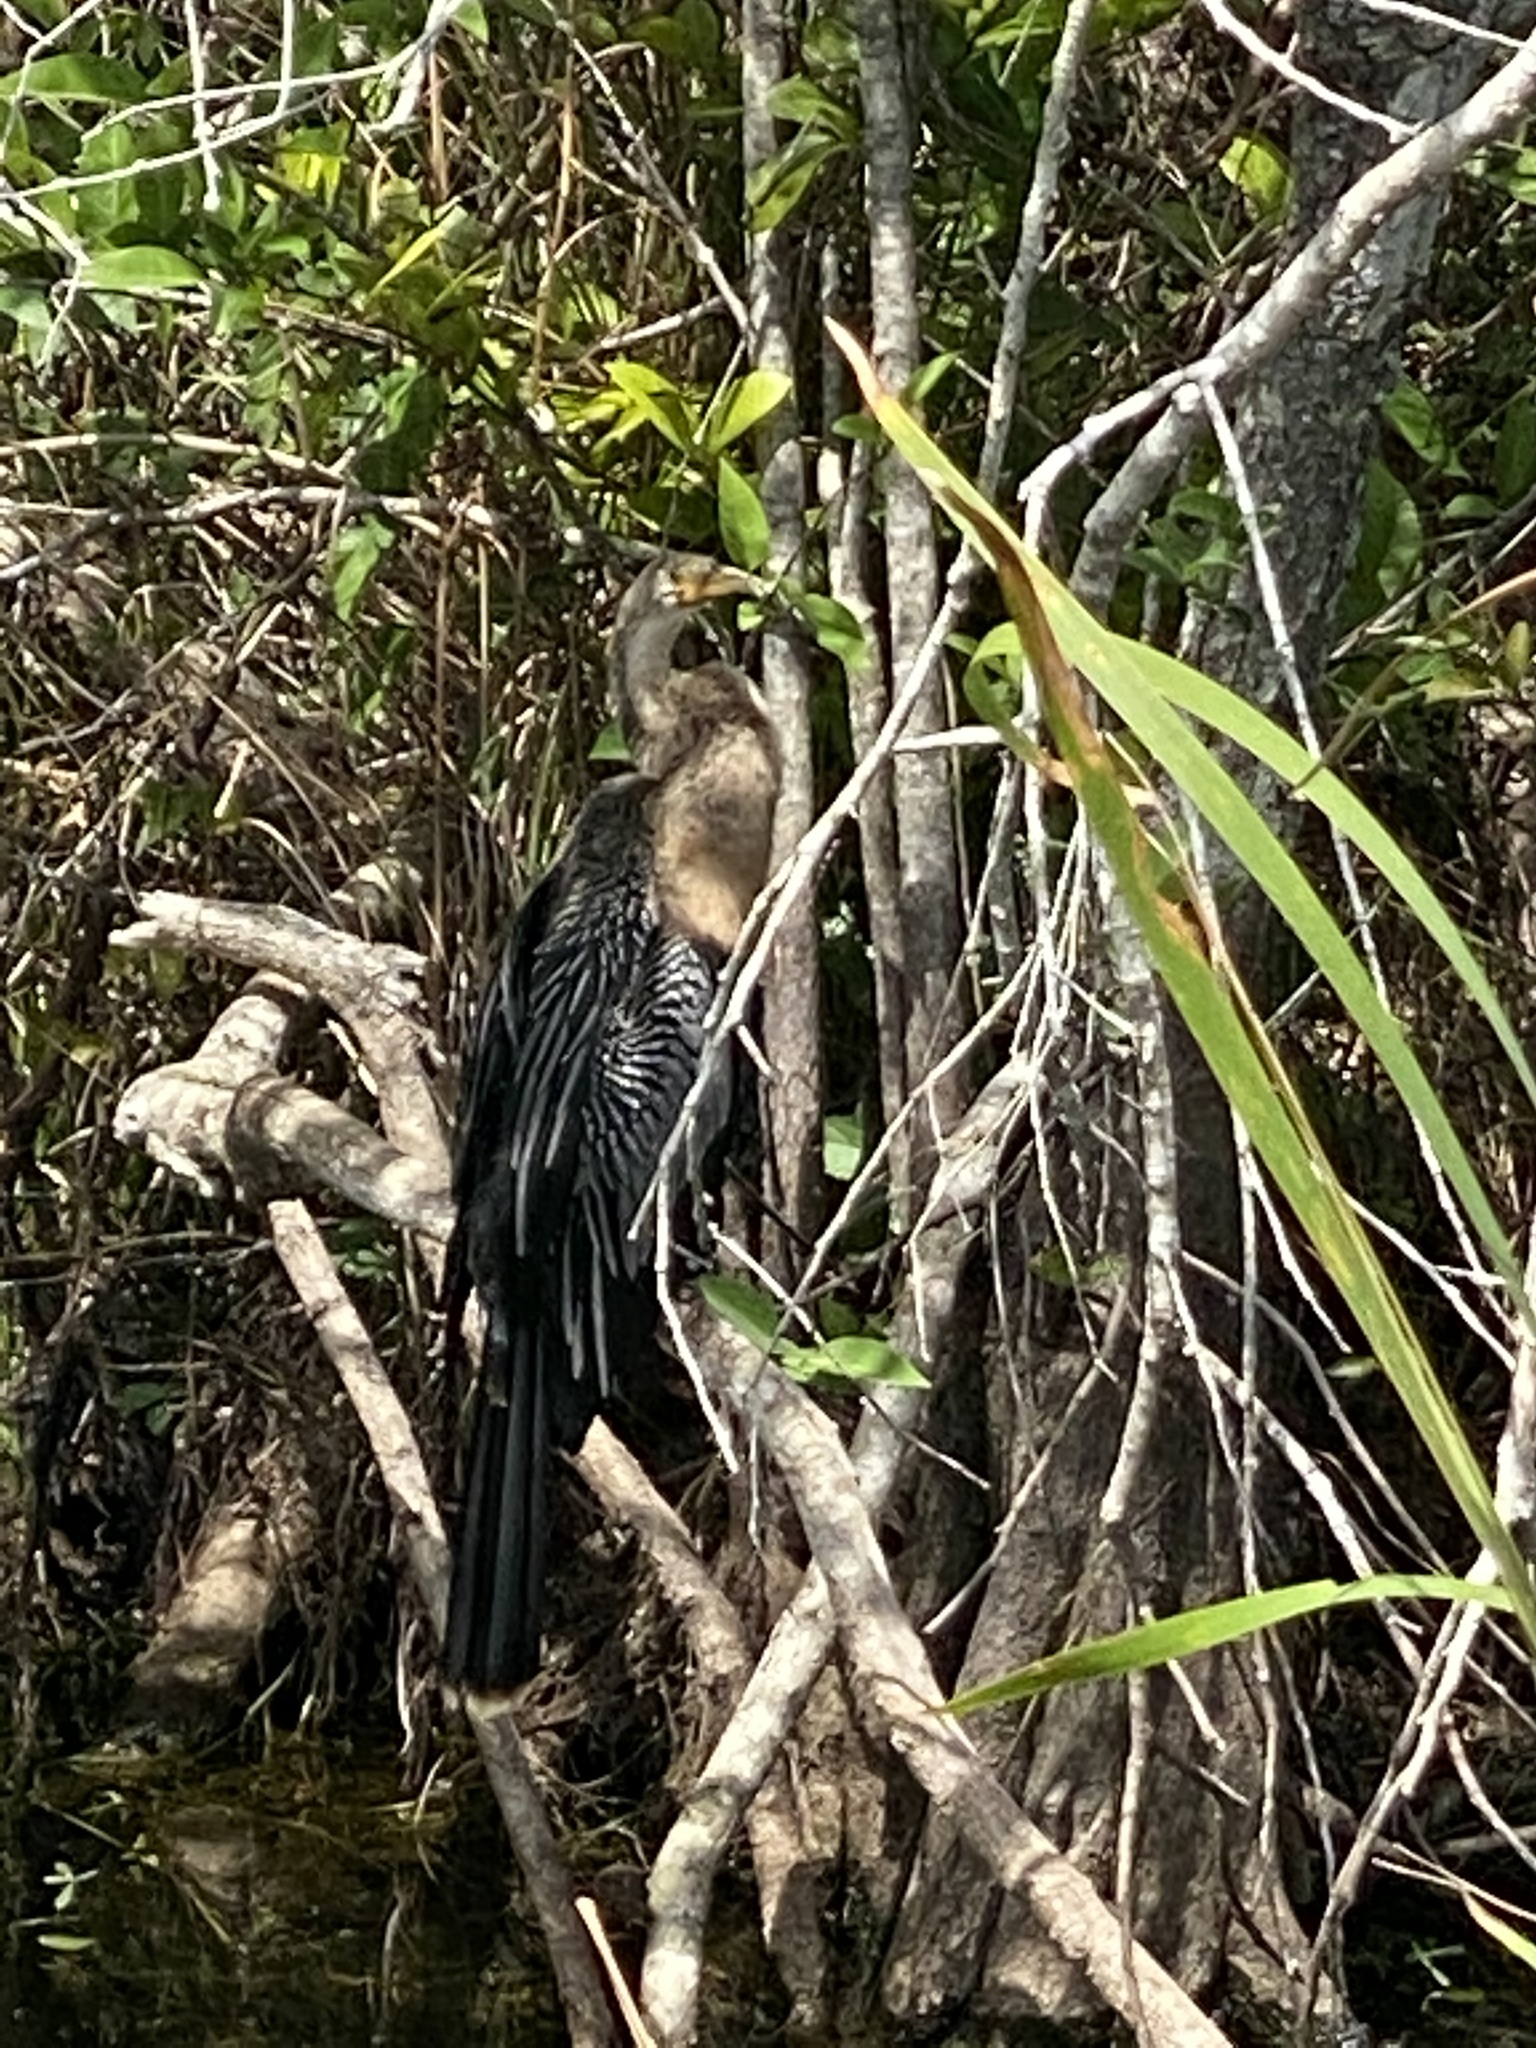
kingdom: Animalia
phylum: Chordata
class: Aves
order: Suliformes
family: Anhingidae
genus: Anhinga
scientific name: Anhinga anhinga
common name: Anhinga
